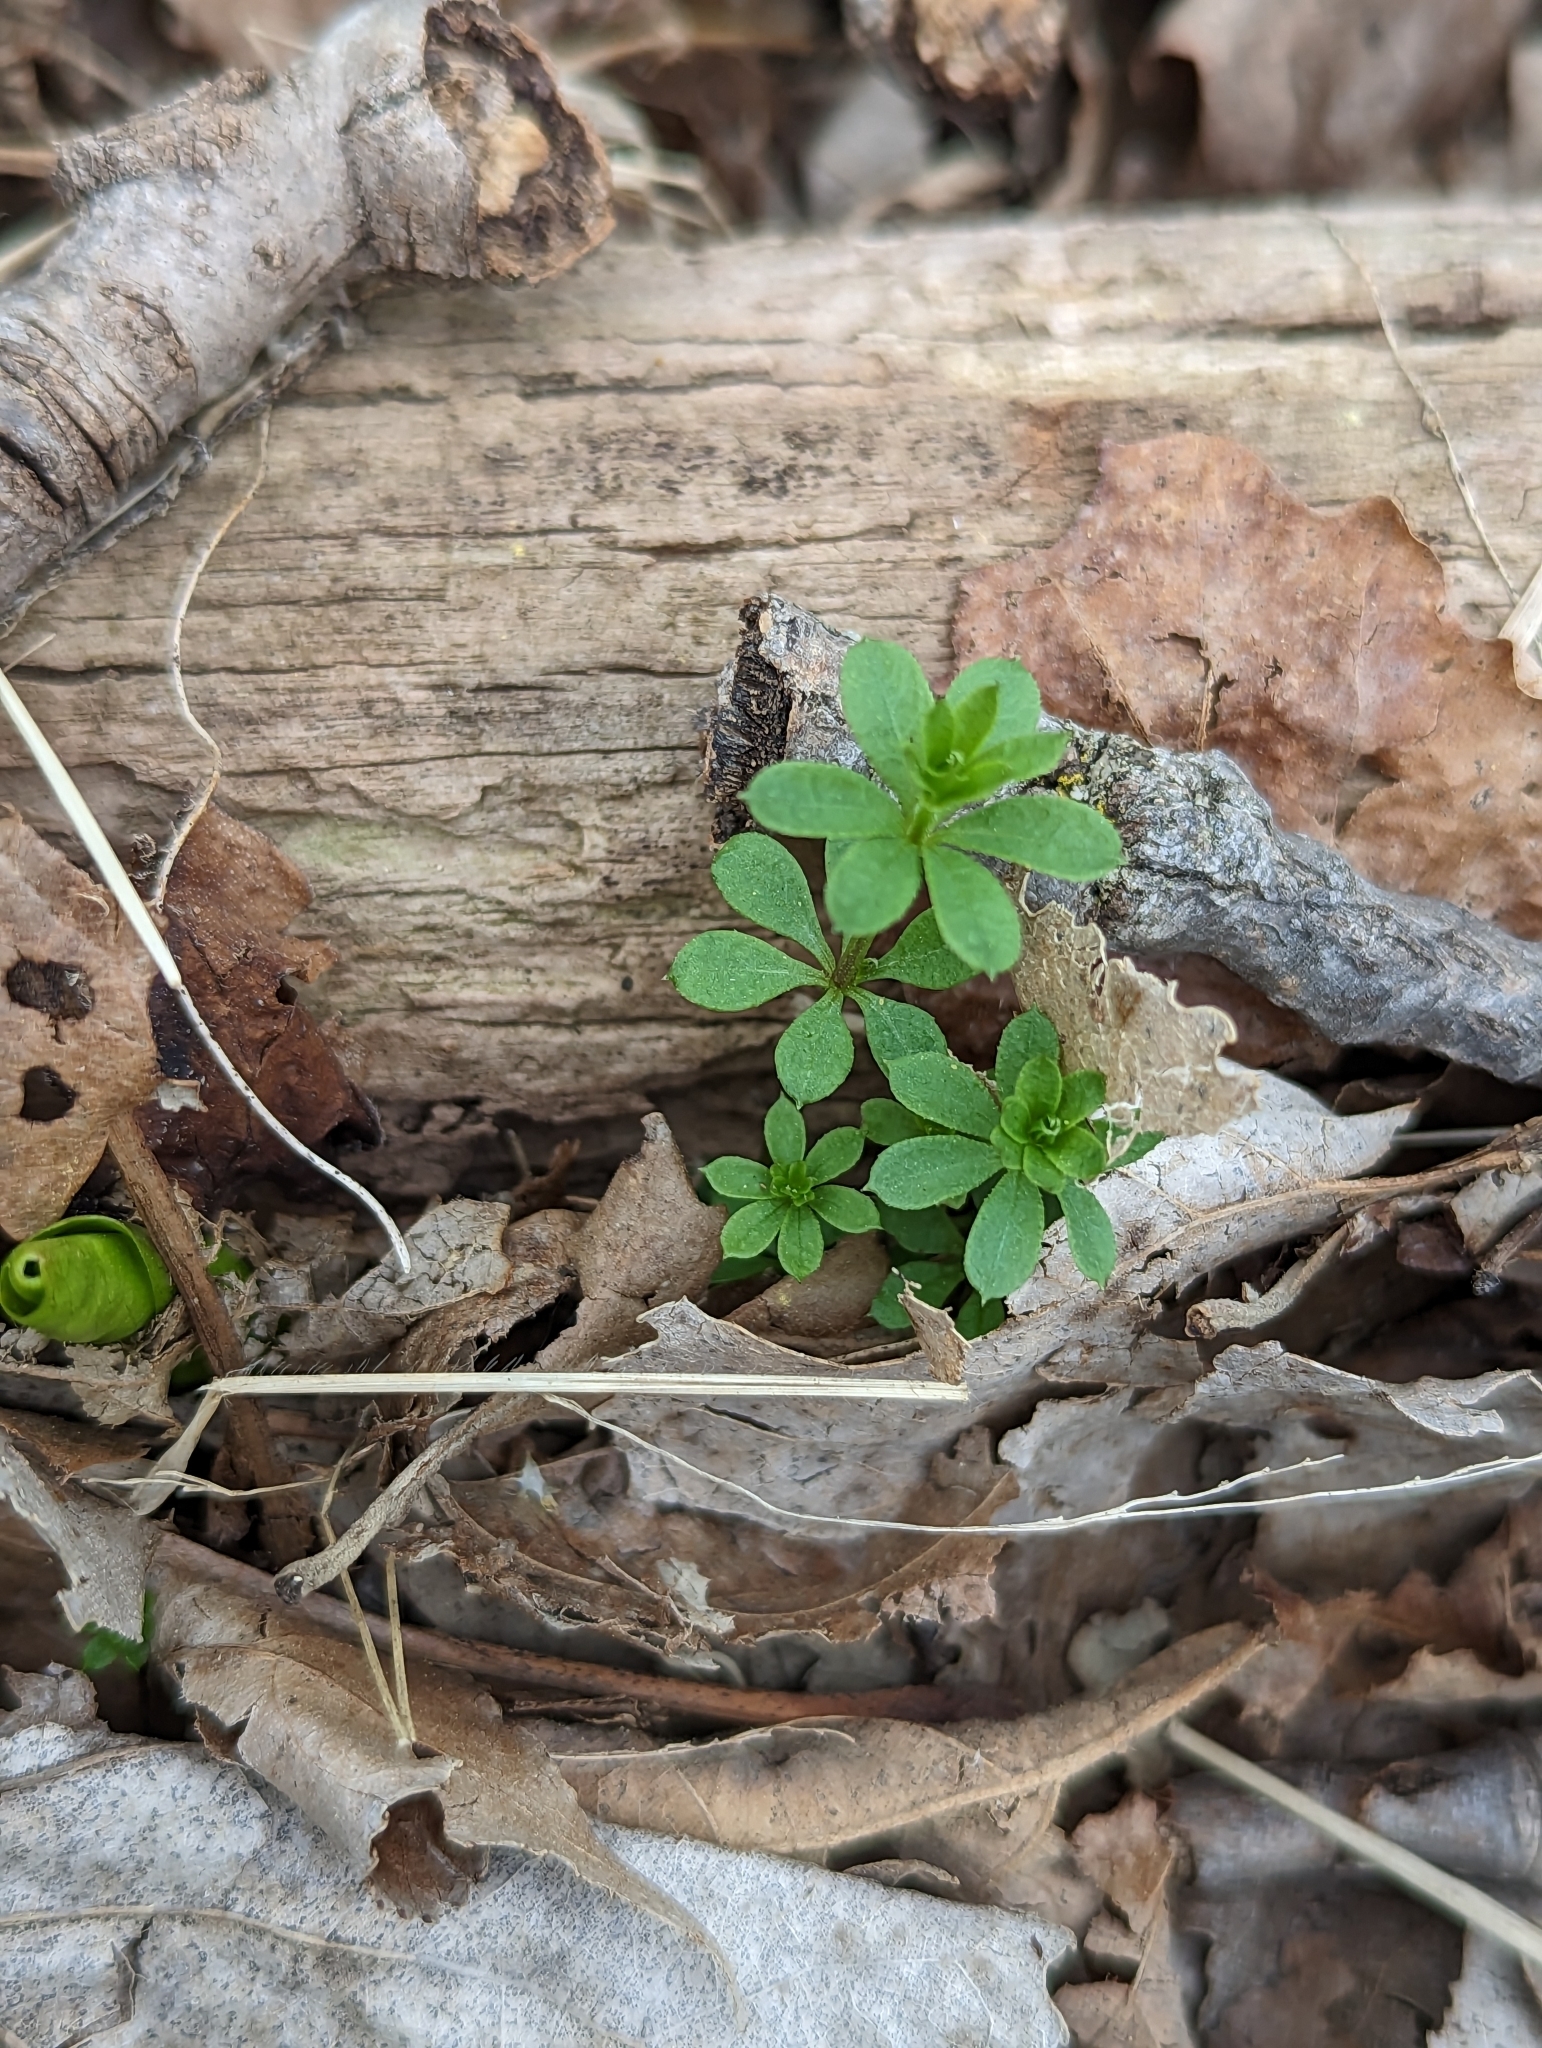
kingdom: Plantae
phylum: Tracheophyta
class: Magnoliopsida
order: Gentianales
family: Rubiaceae
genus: Galium
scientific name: Galium triflorum
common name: Fragrant bedstraw
